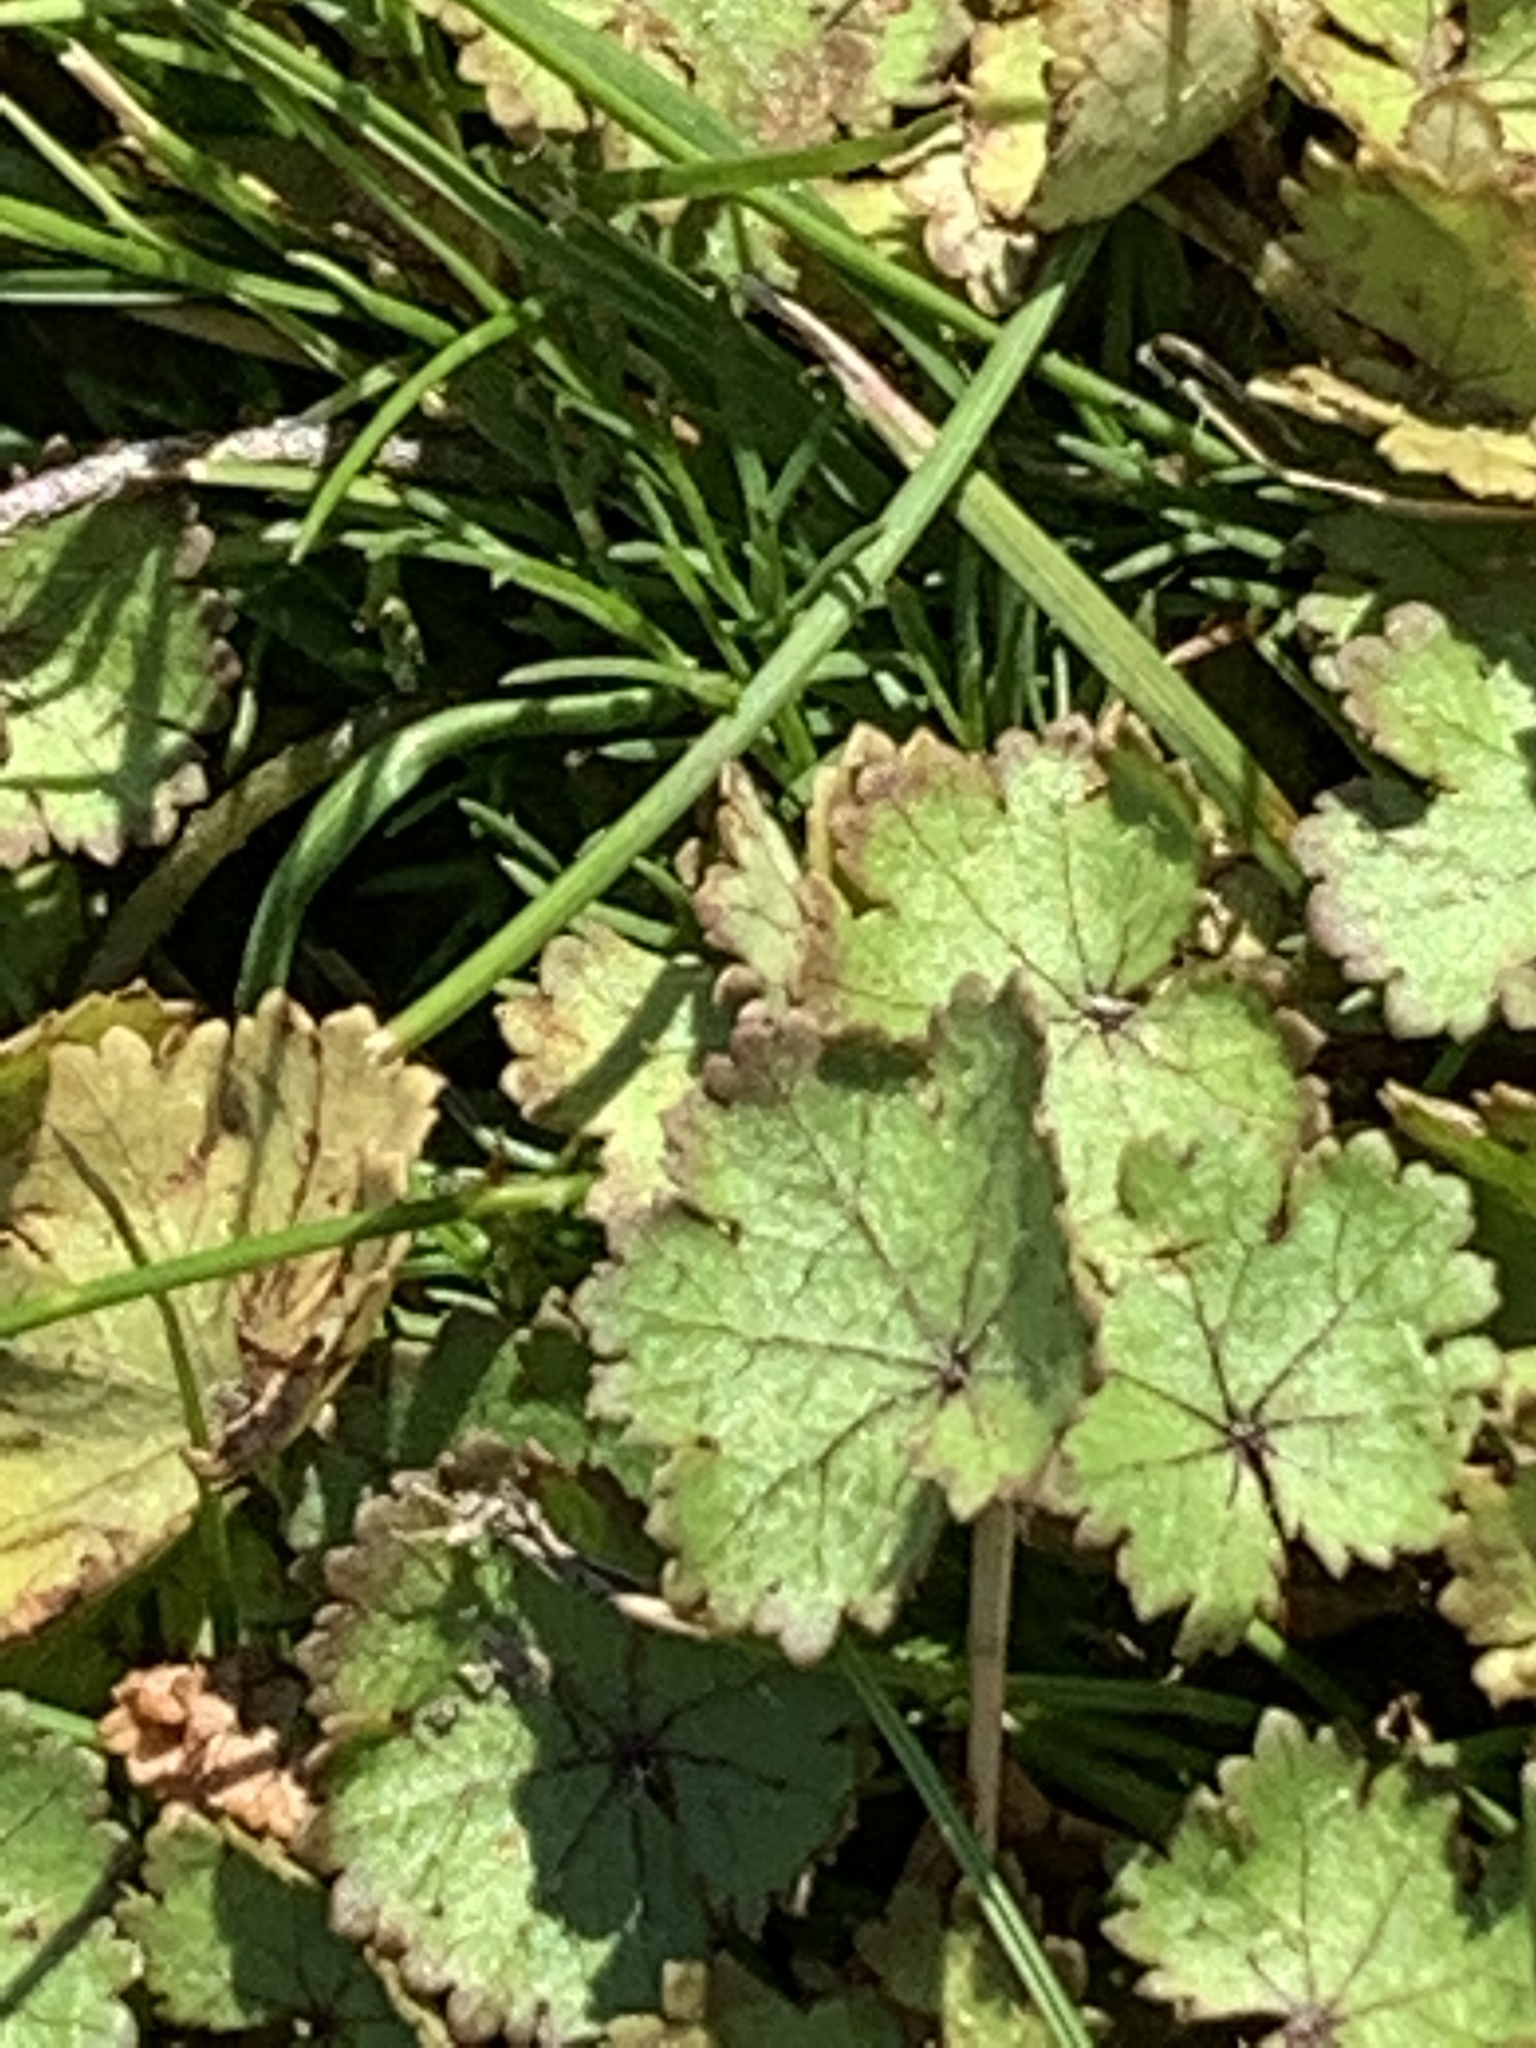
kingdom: Plantae
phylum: Tracheophyta
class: Magnoliopsida
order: Apiales
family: Araliaceae
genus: Hydrocotyle
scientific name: Hydrocotyle moschata
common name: Hairy pennywort
